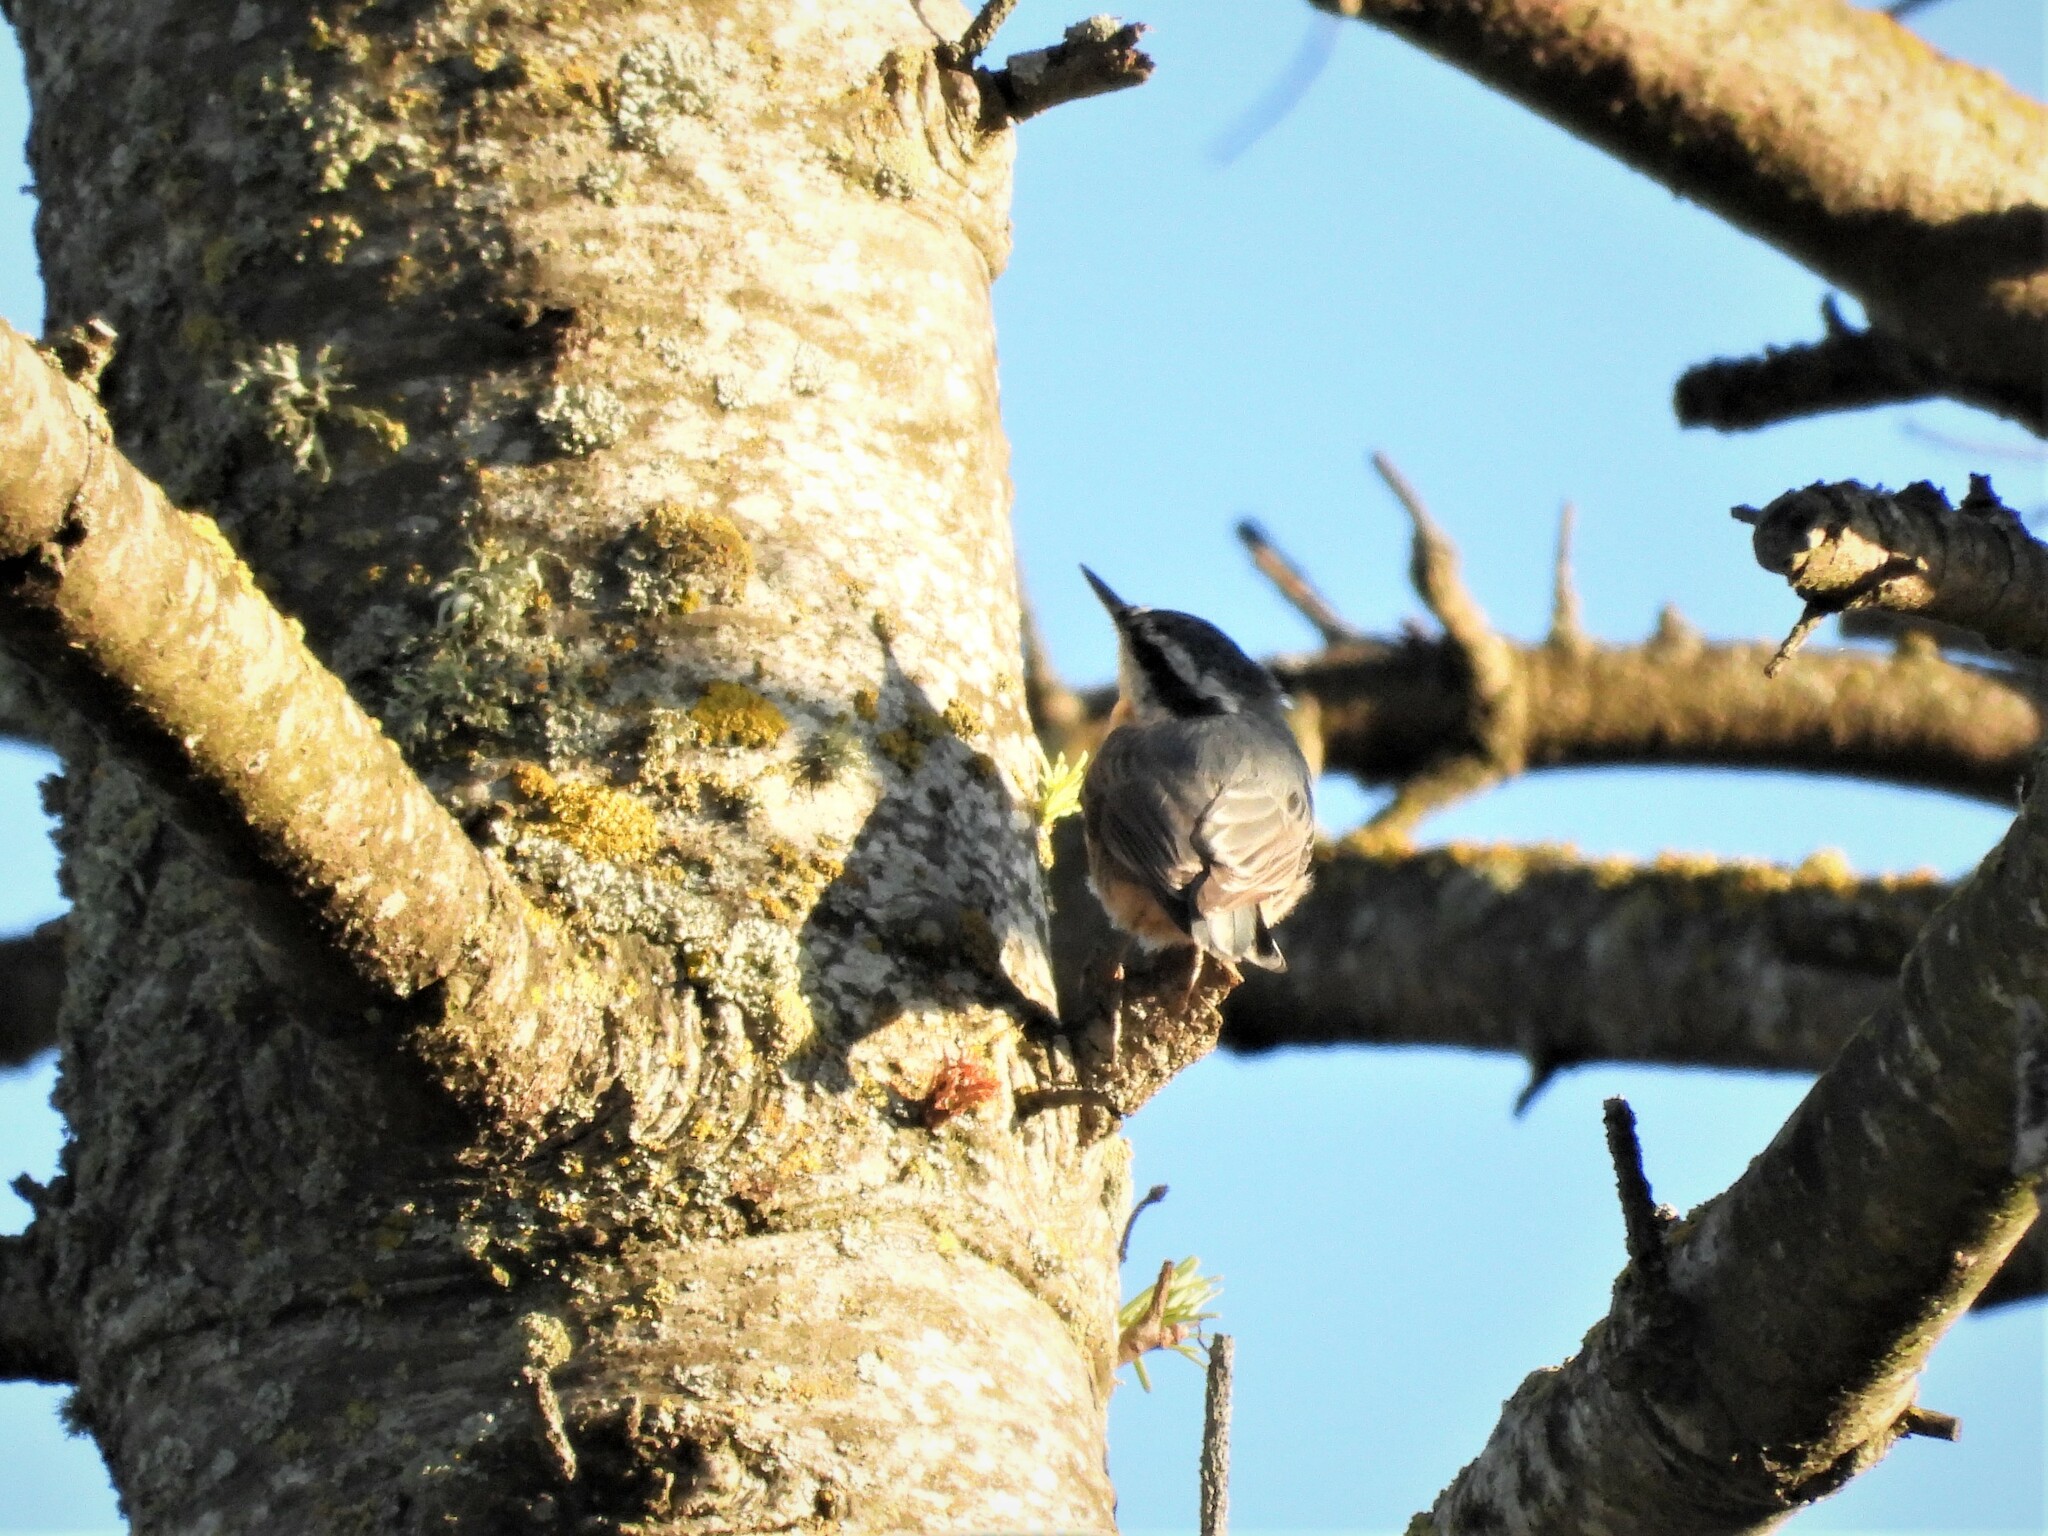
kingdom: Animalia
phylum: Chordata
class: Aves
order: Passeriformes
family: Sittidae
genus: Sitta
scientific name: Sitta canadensis
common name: Red-breasted nuthatch
